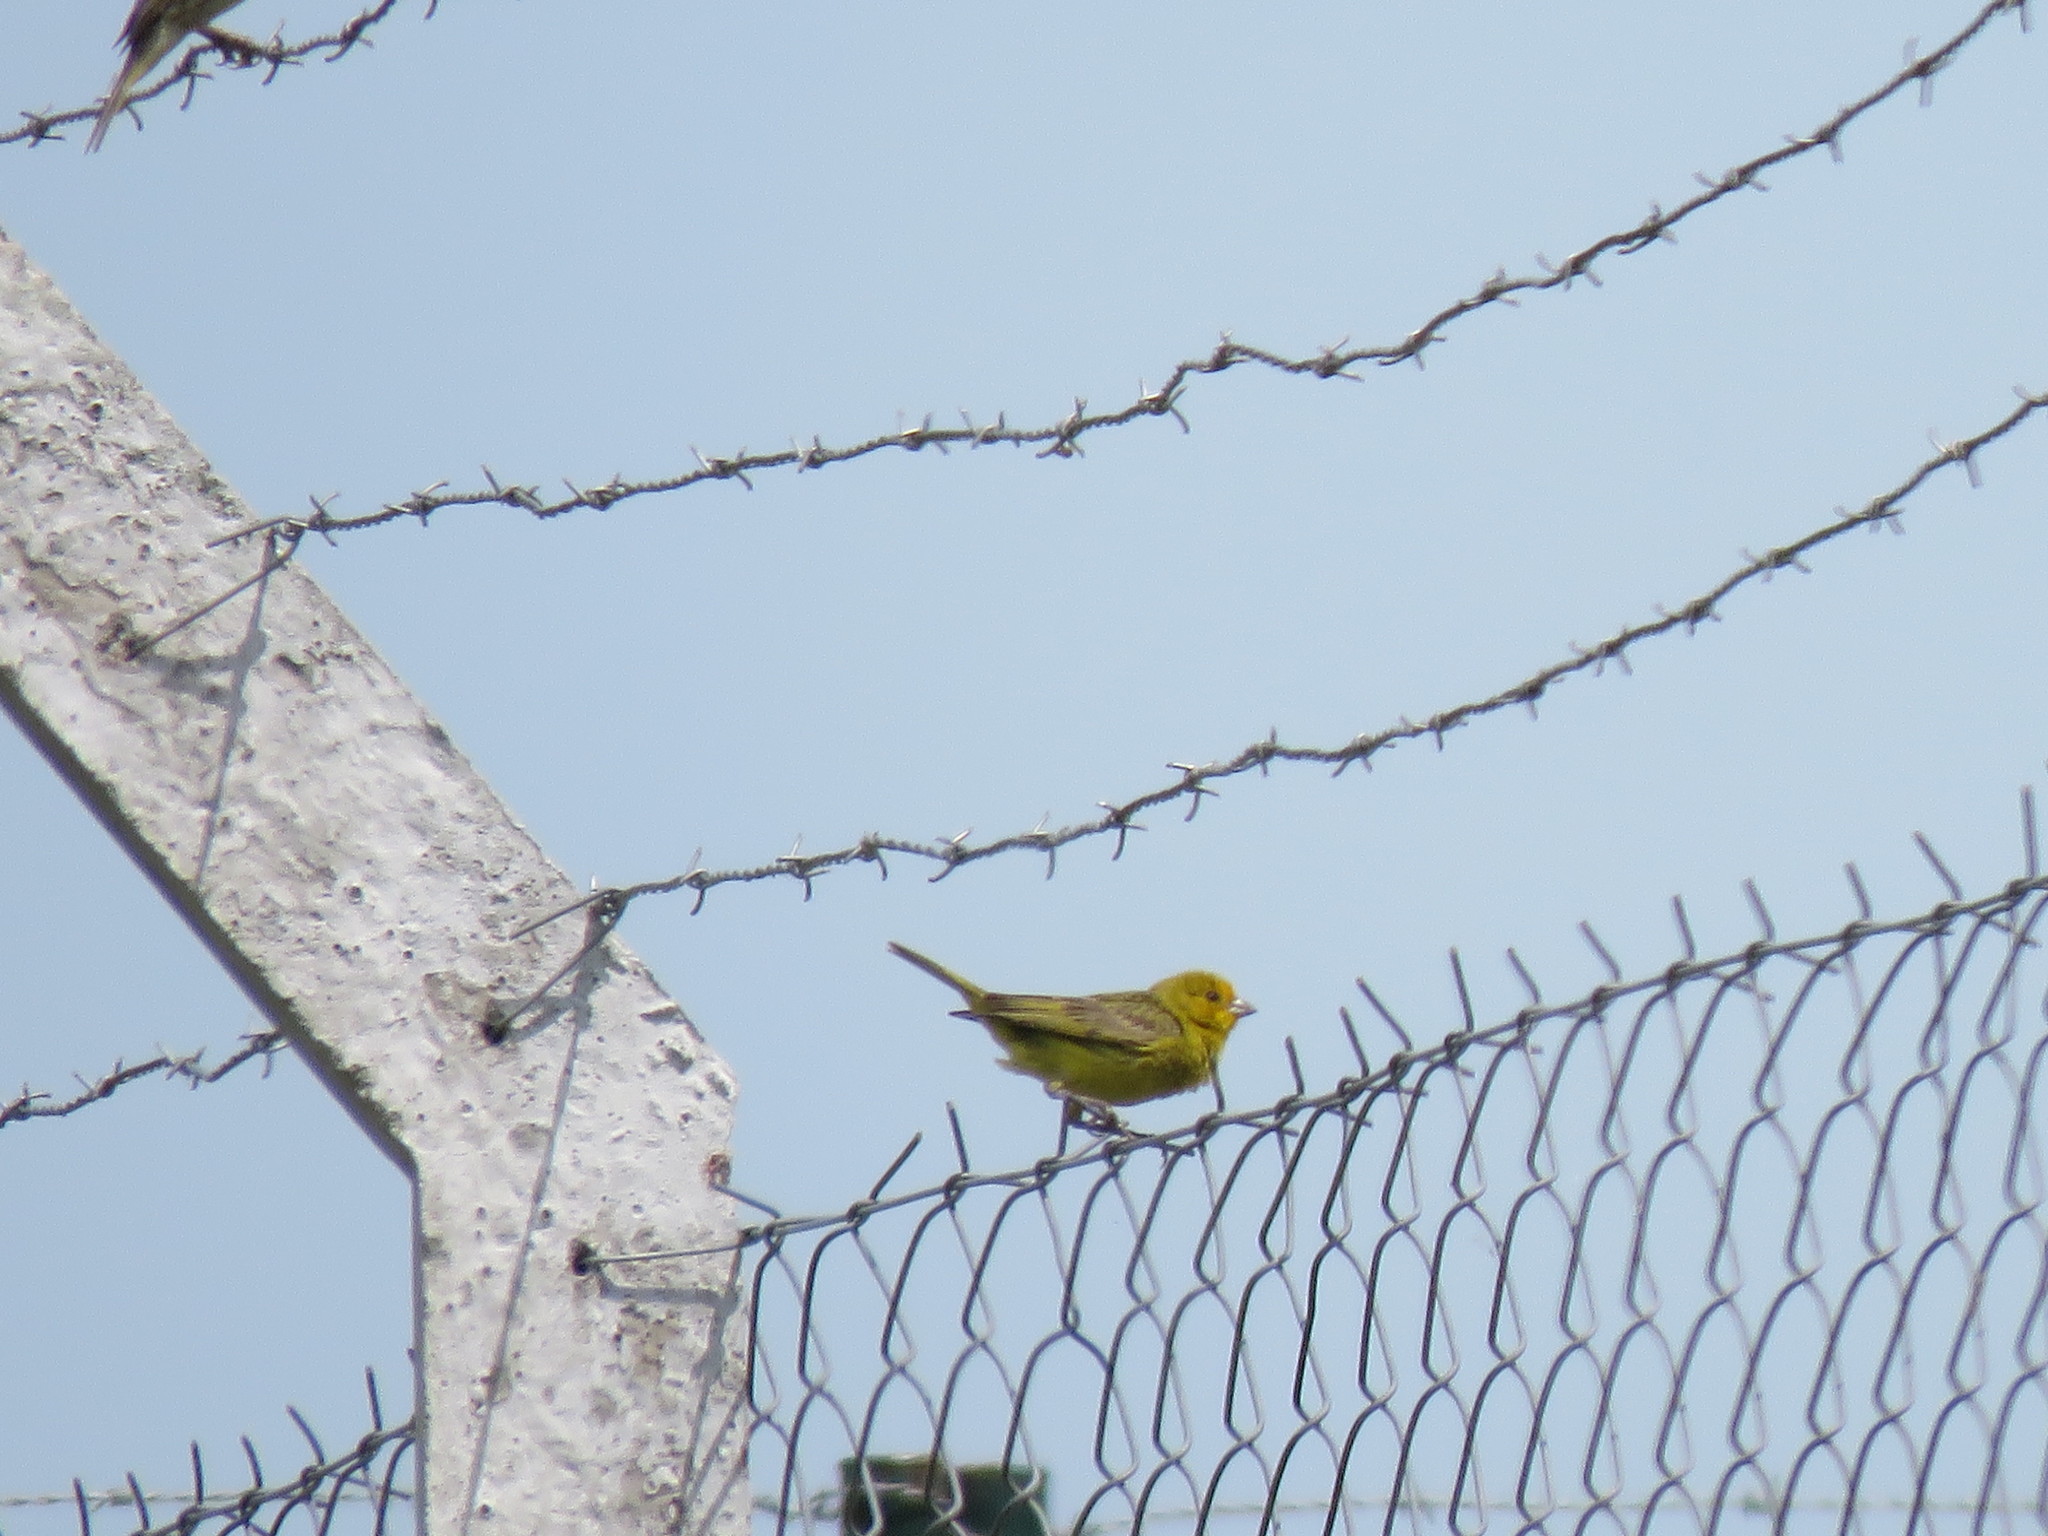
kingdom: Animalia
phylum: Chordata
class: Aves
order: Passeriformes
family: Thraupidae
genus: Sicalis
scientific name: Sicalis flaveola
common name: Saffron finch
